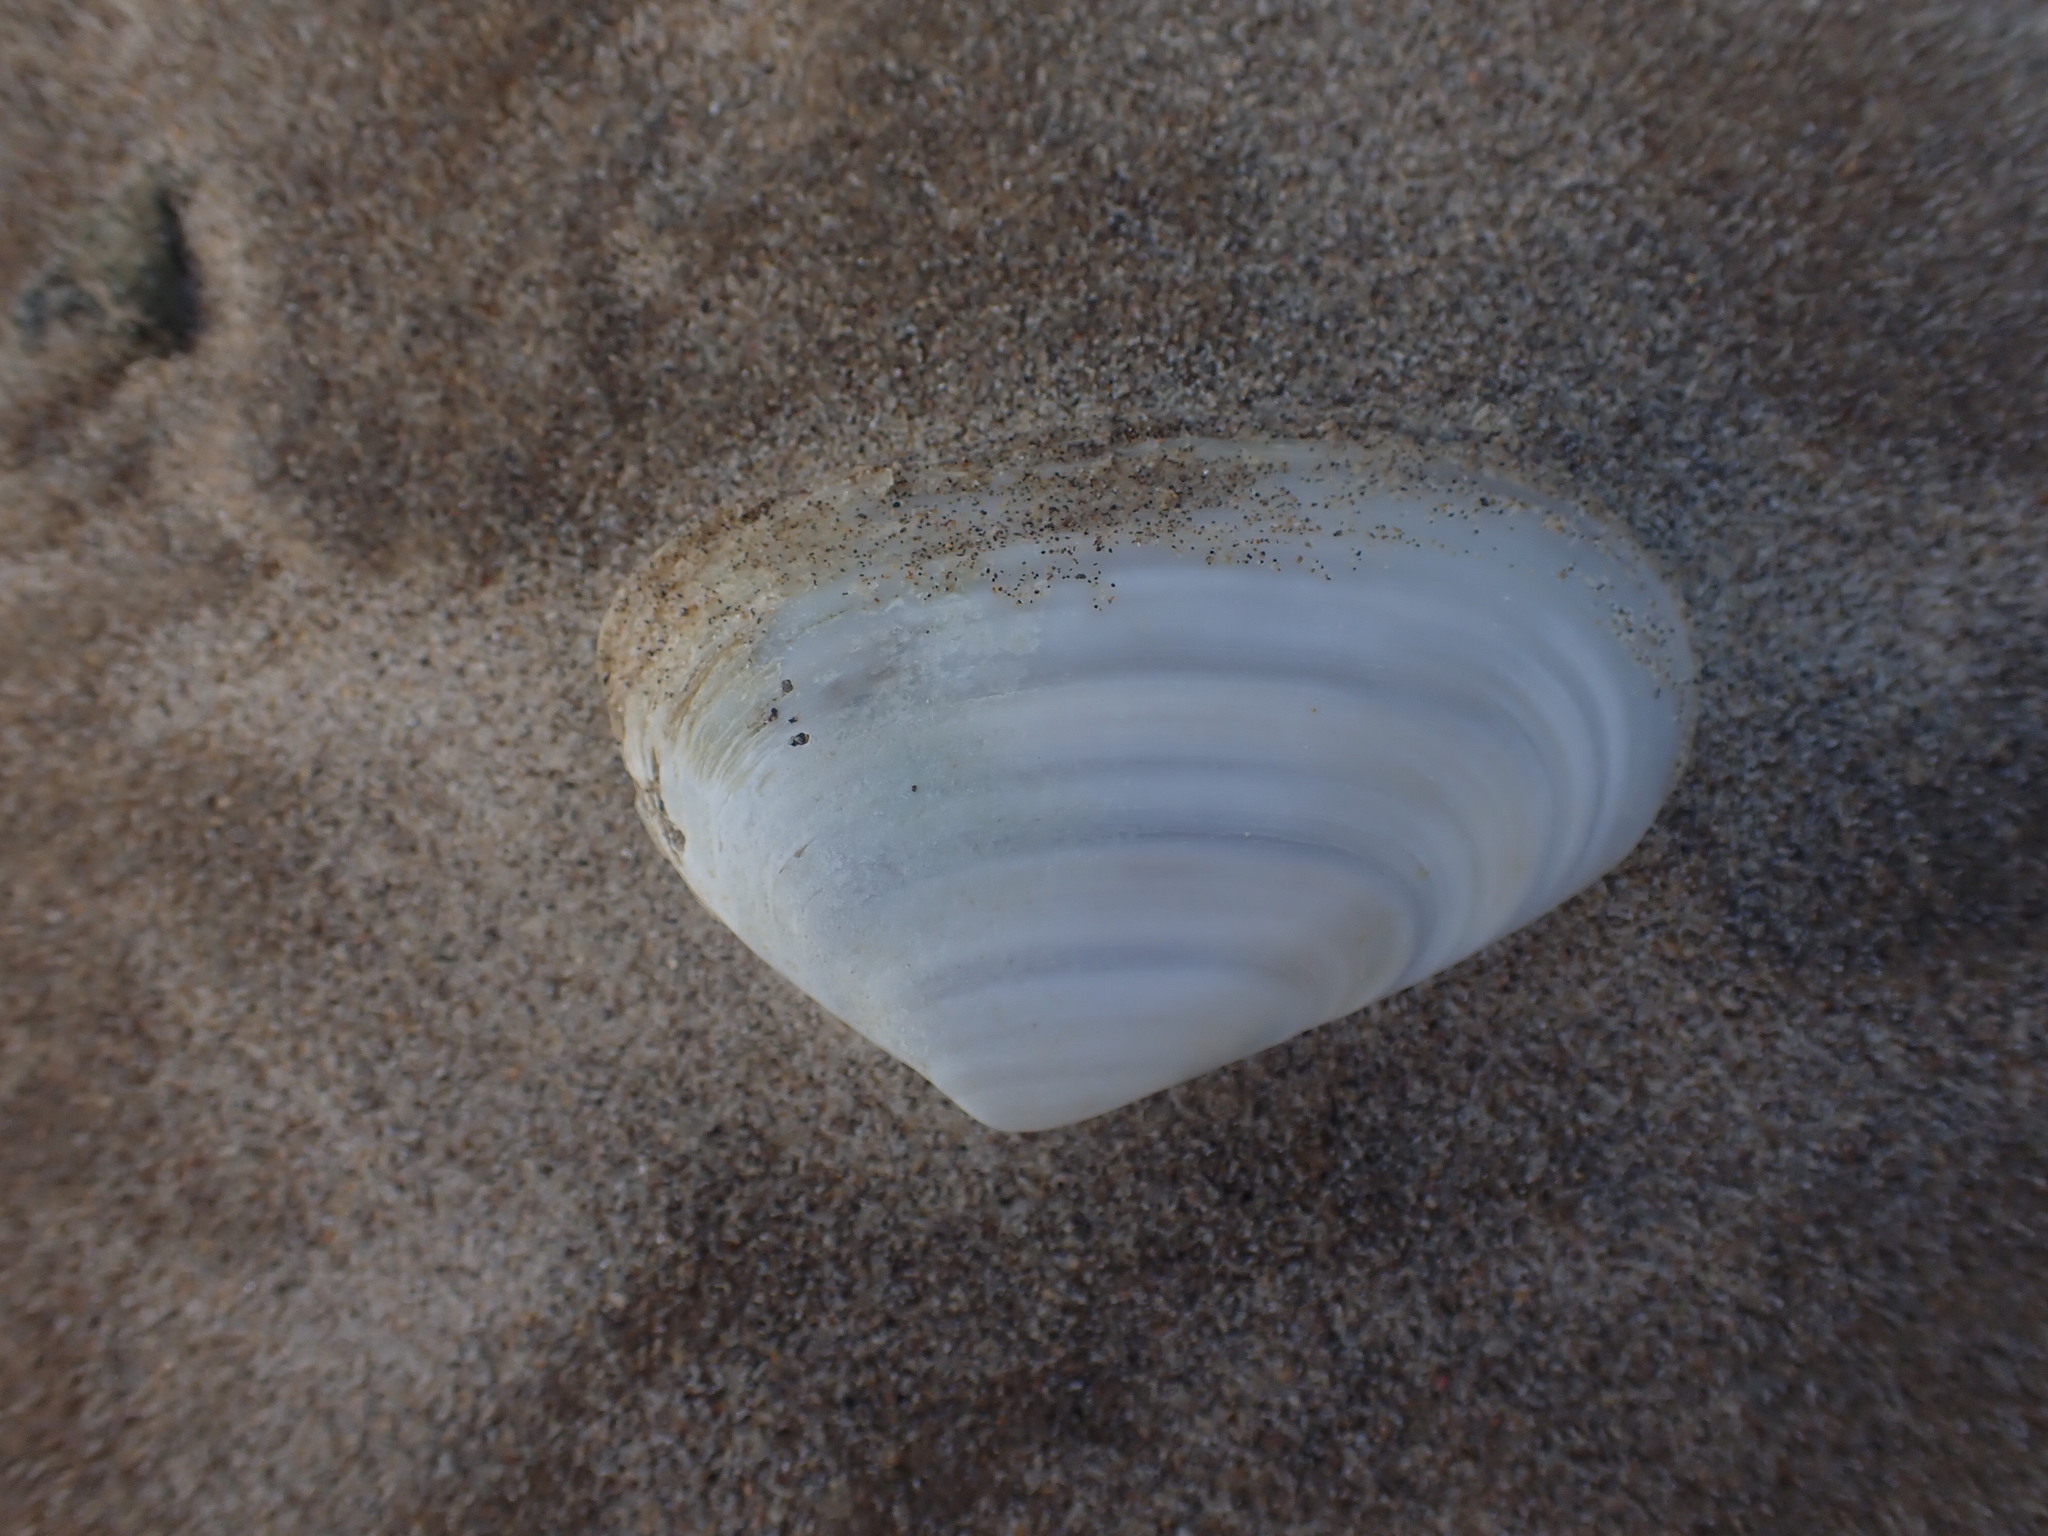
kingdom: Animalia
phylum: Mollusca
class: Bivalvia
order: Venerida
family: Mesodesmatidae
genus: Paphies
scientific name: Paphies subtriangulata
